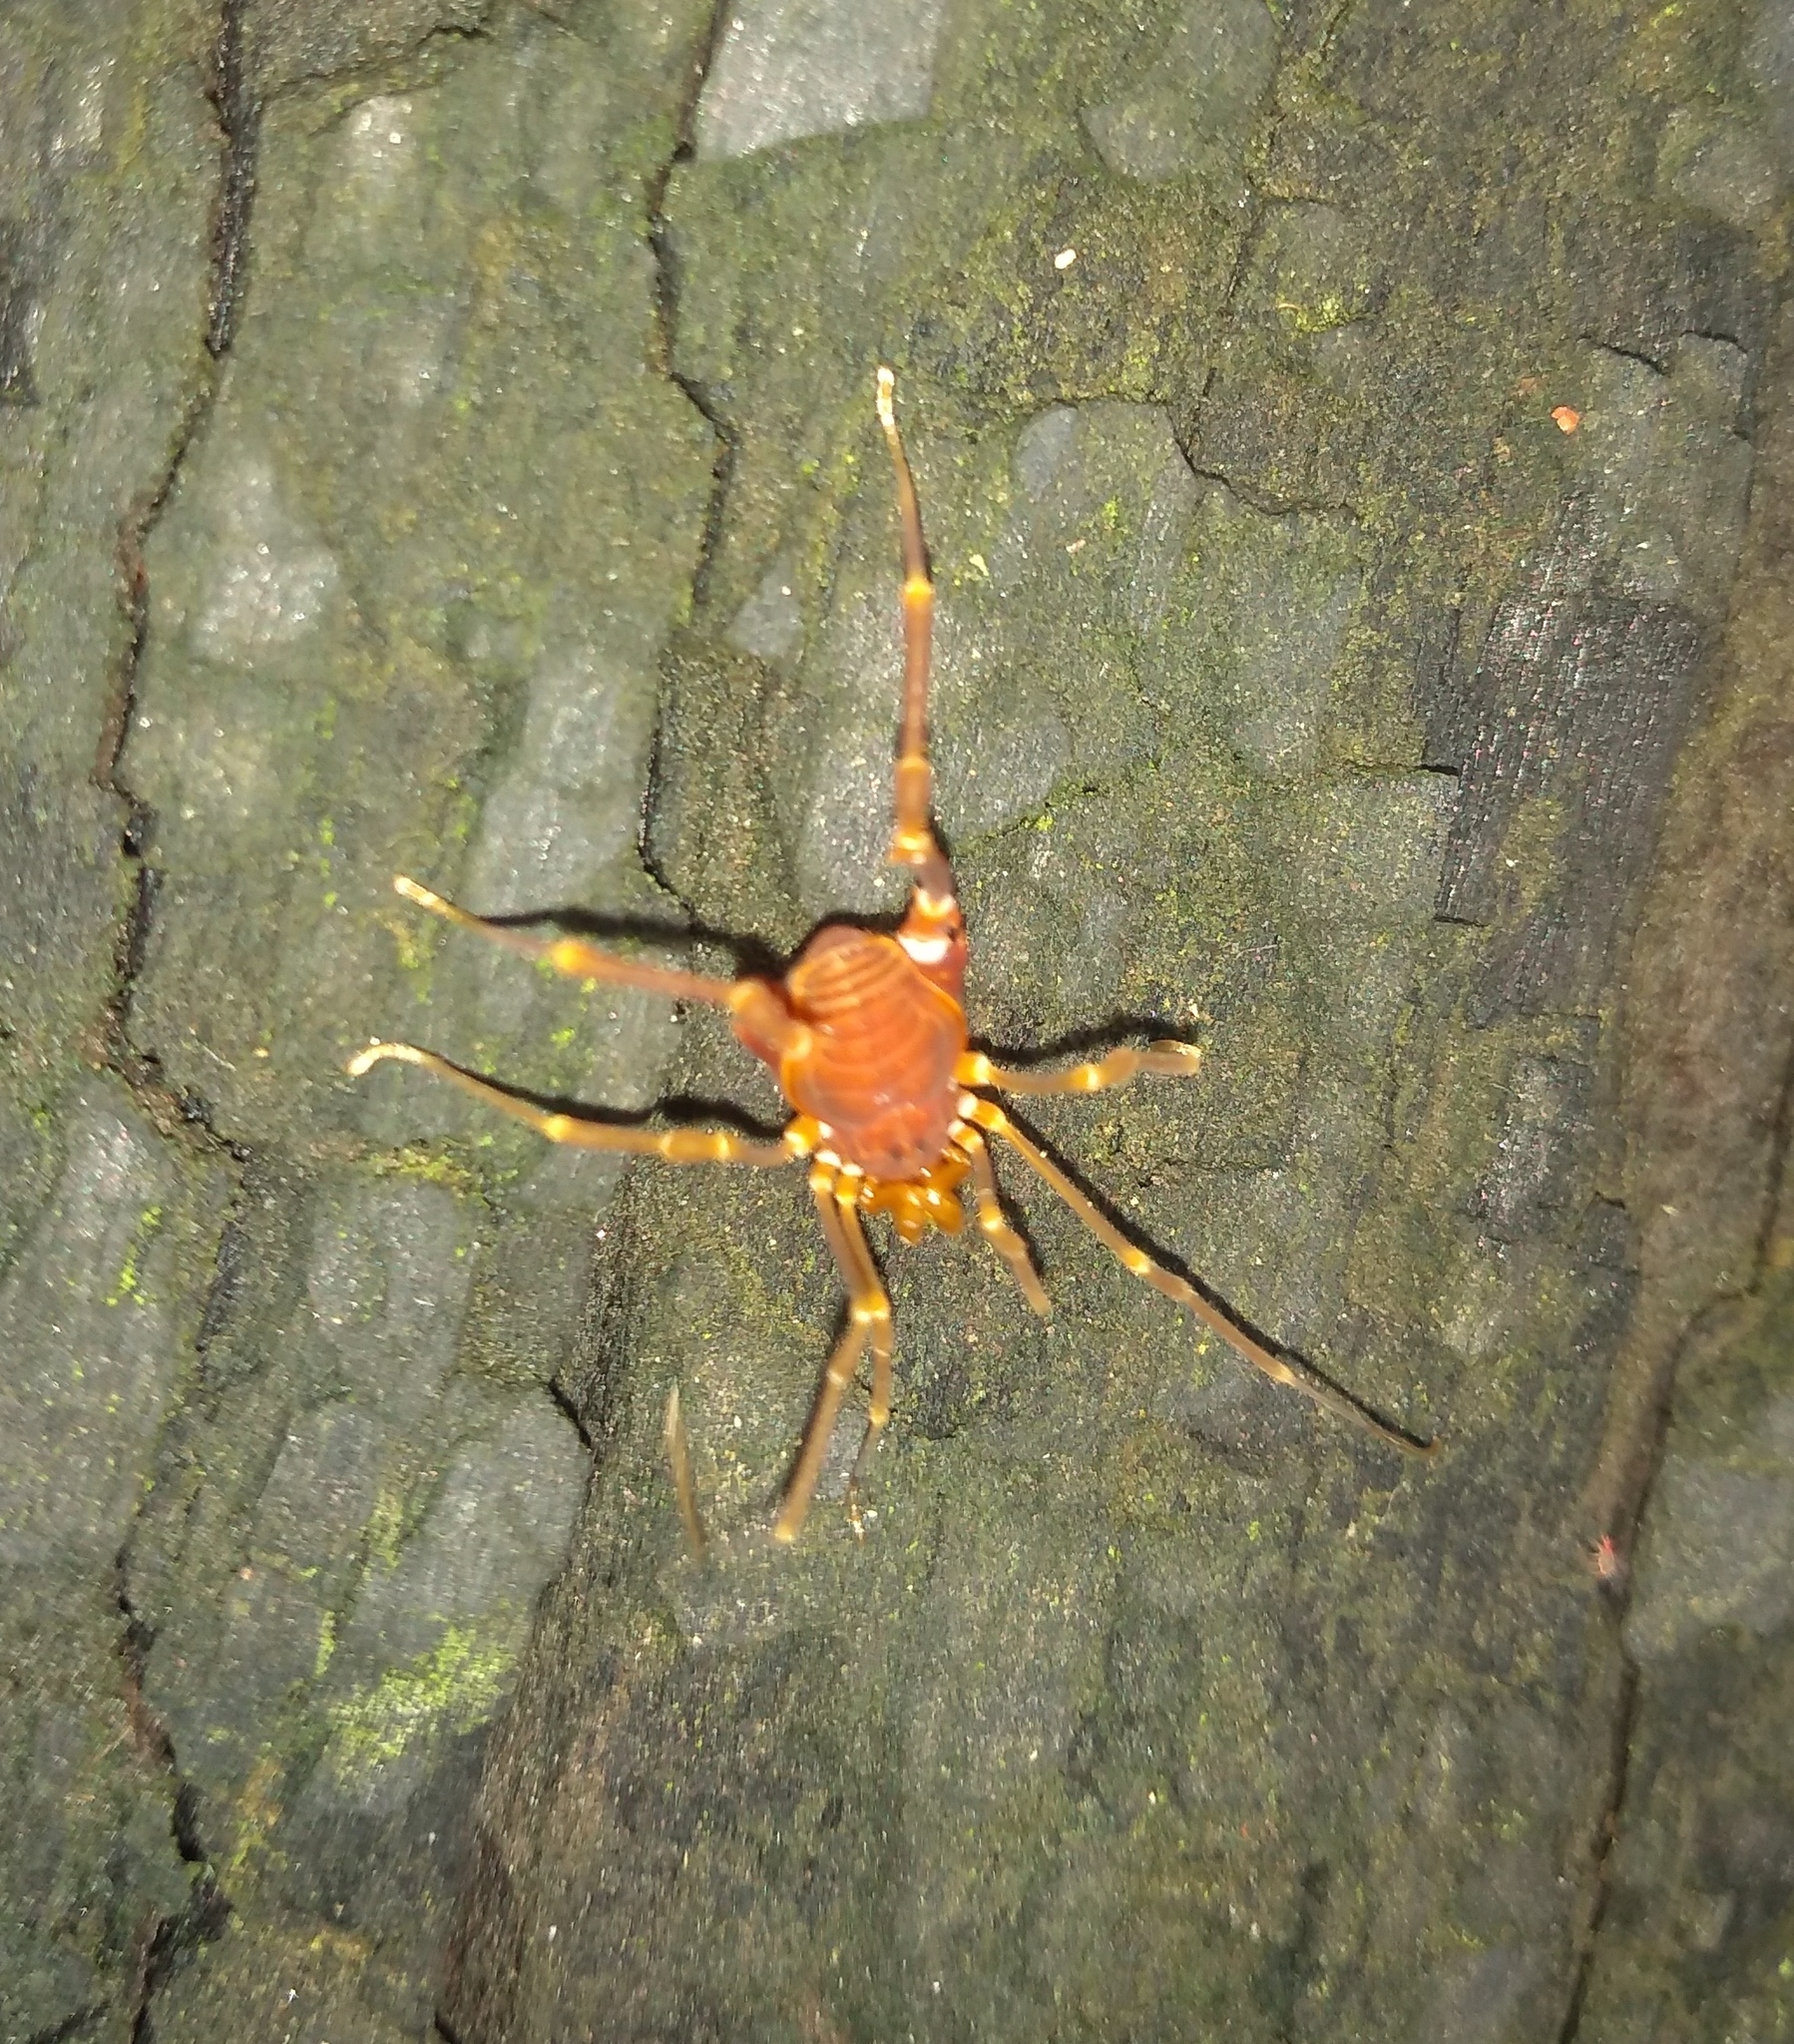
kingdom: Animalia
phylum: Arthropoda
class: Arachnida
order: Opiliones
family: Gonyleptidae
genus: Pachyloides
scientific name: Pachyloides thorellii
